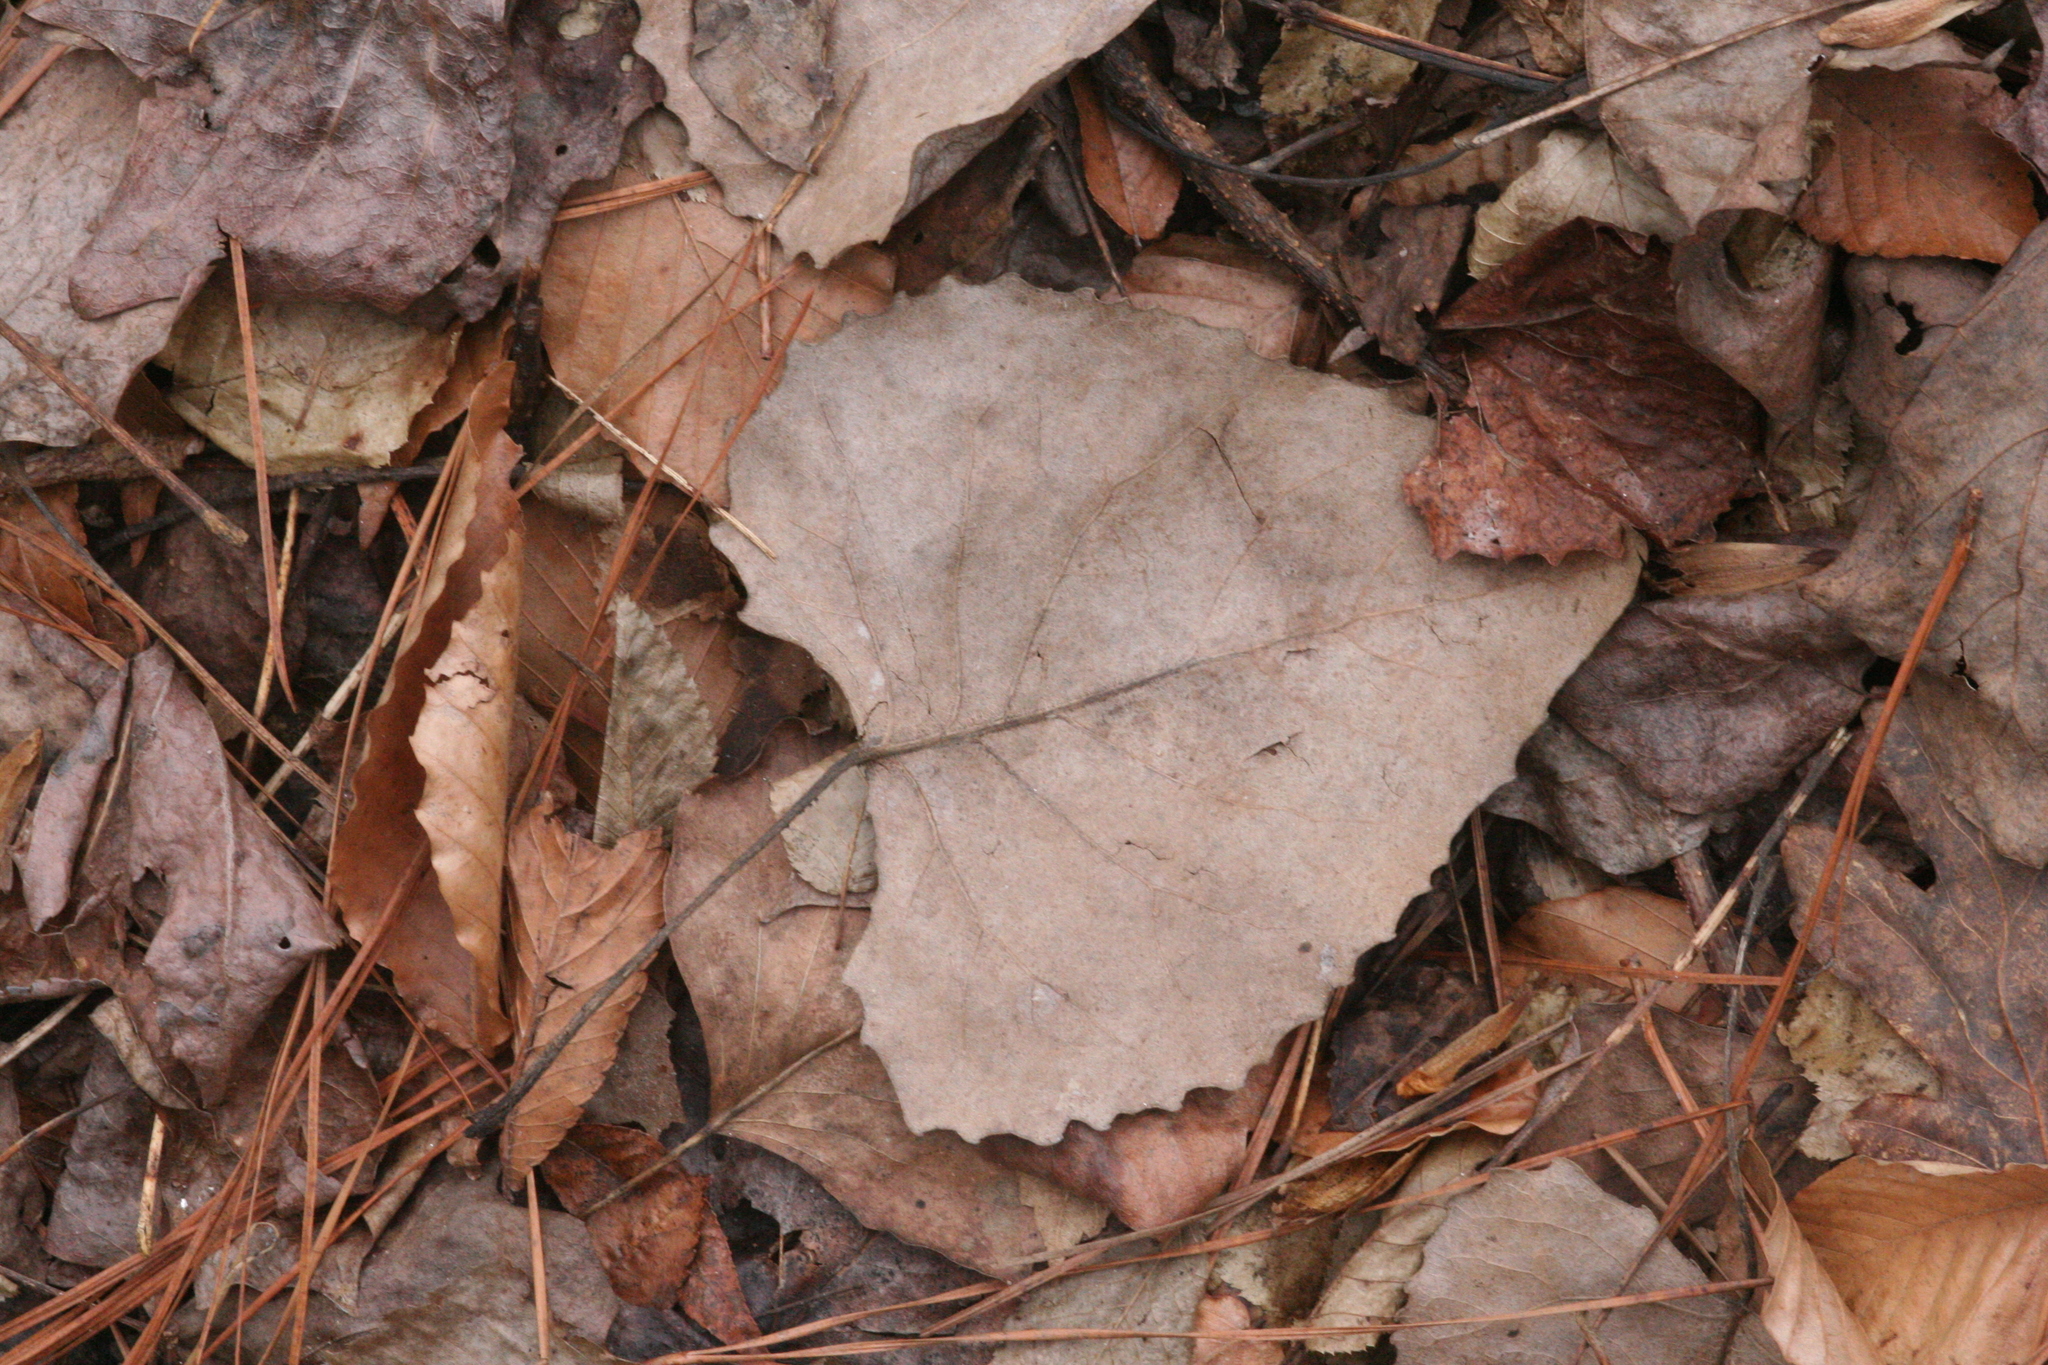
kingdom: Plantae
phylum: Tracheophyta
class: Magnoliopsida
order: Malpighiales
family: Salicaceae
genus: Populus
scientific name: Populus deltoides
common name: Eastern cottonwood
